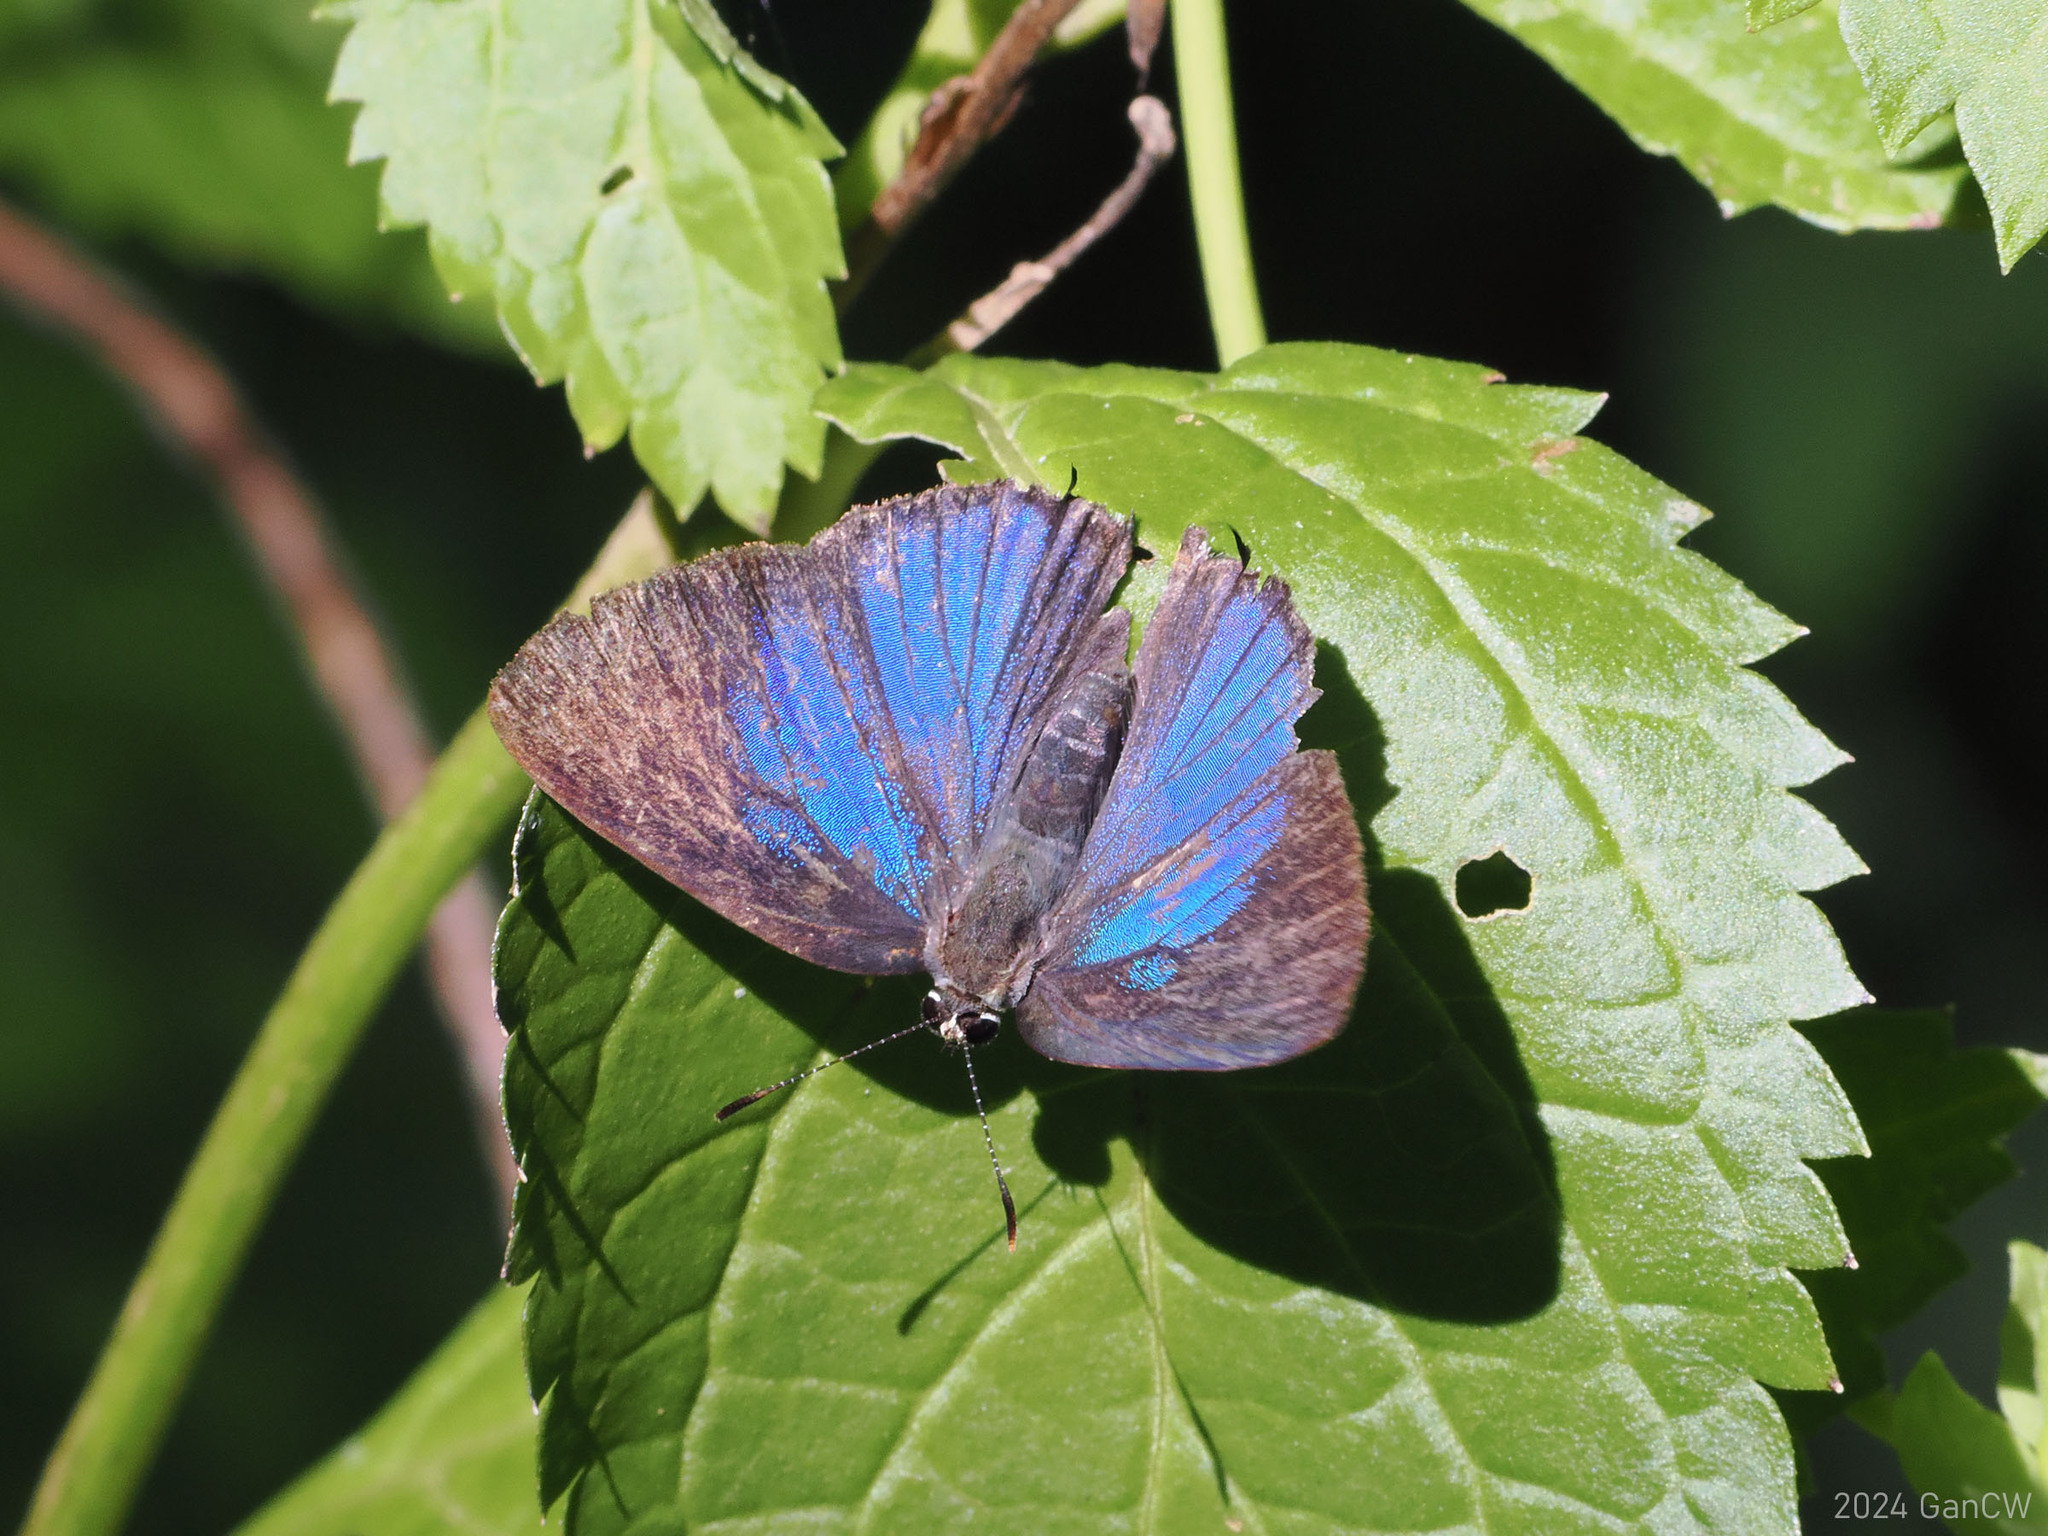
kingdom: Animalia
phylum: Arthropoda
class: Insecta
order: Lepidoptera
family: Lycaenidae
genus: Rapala
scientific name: Rapala tomokoae
